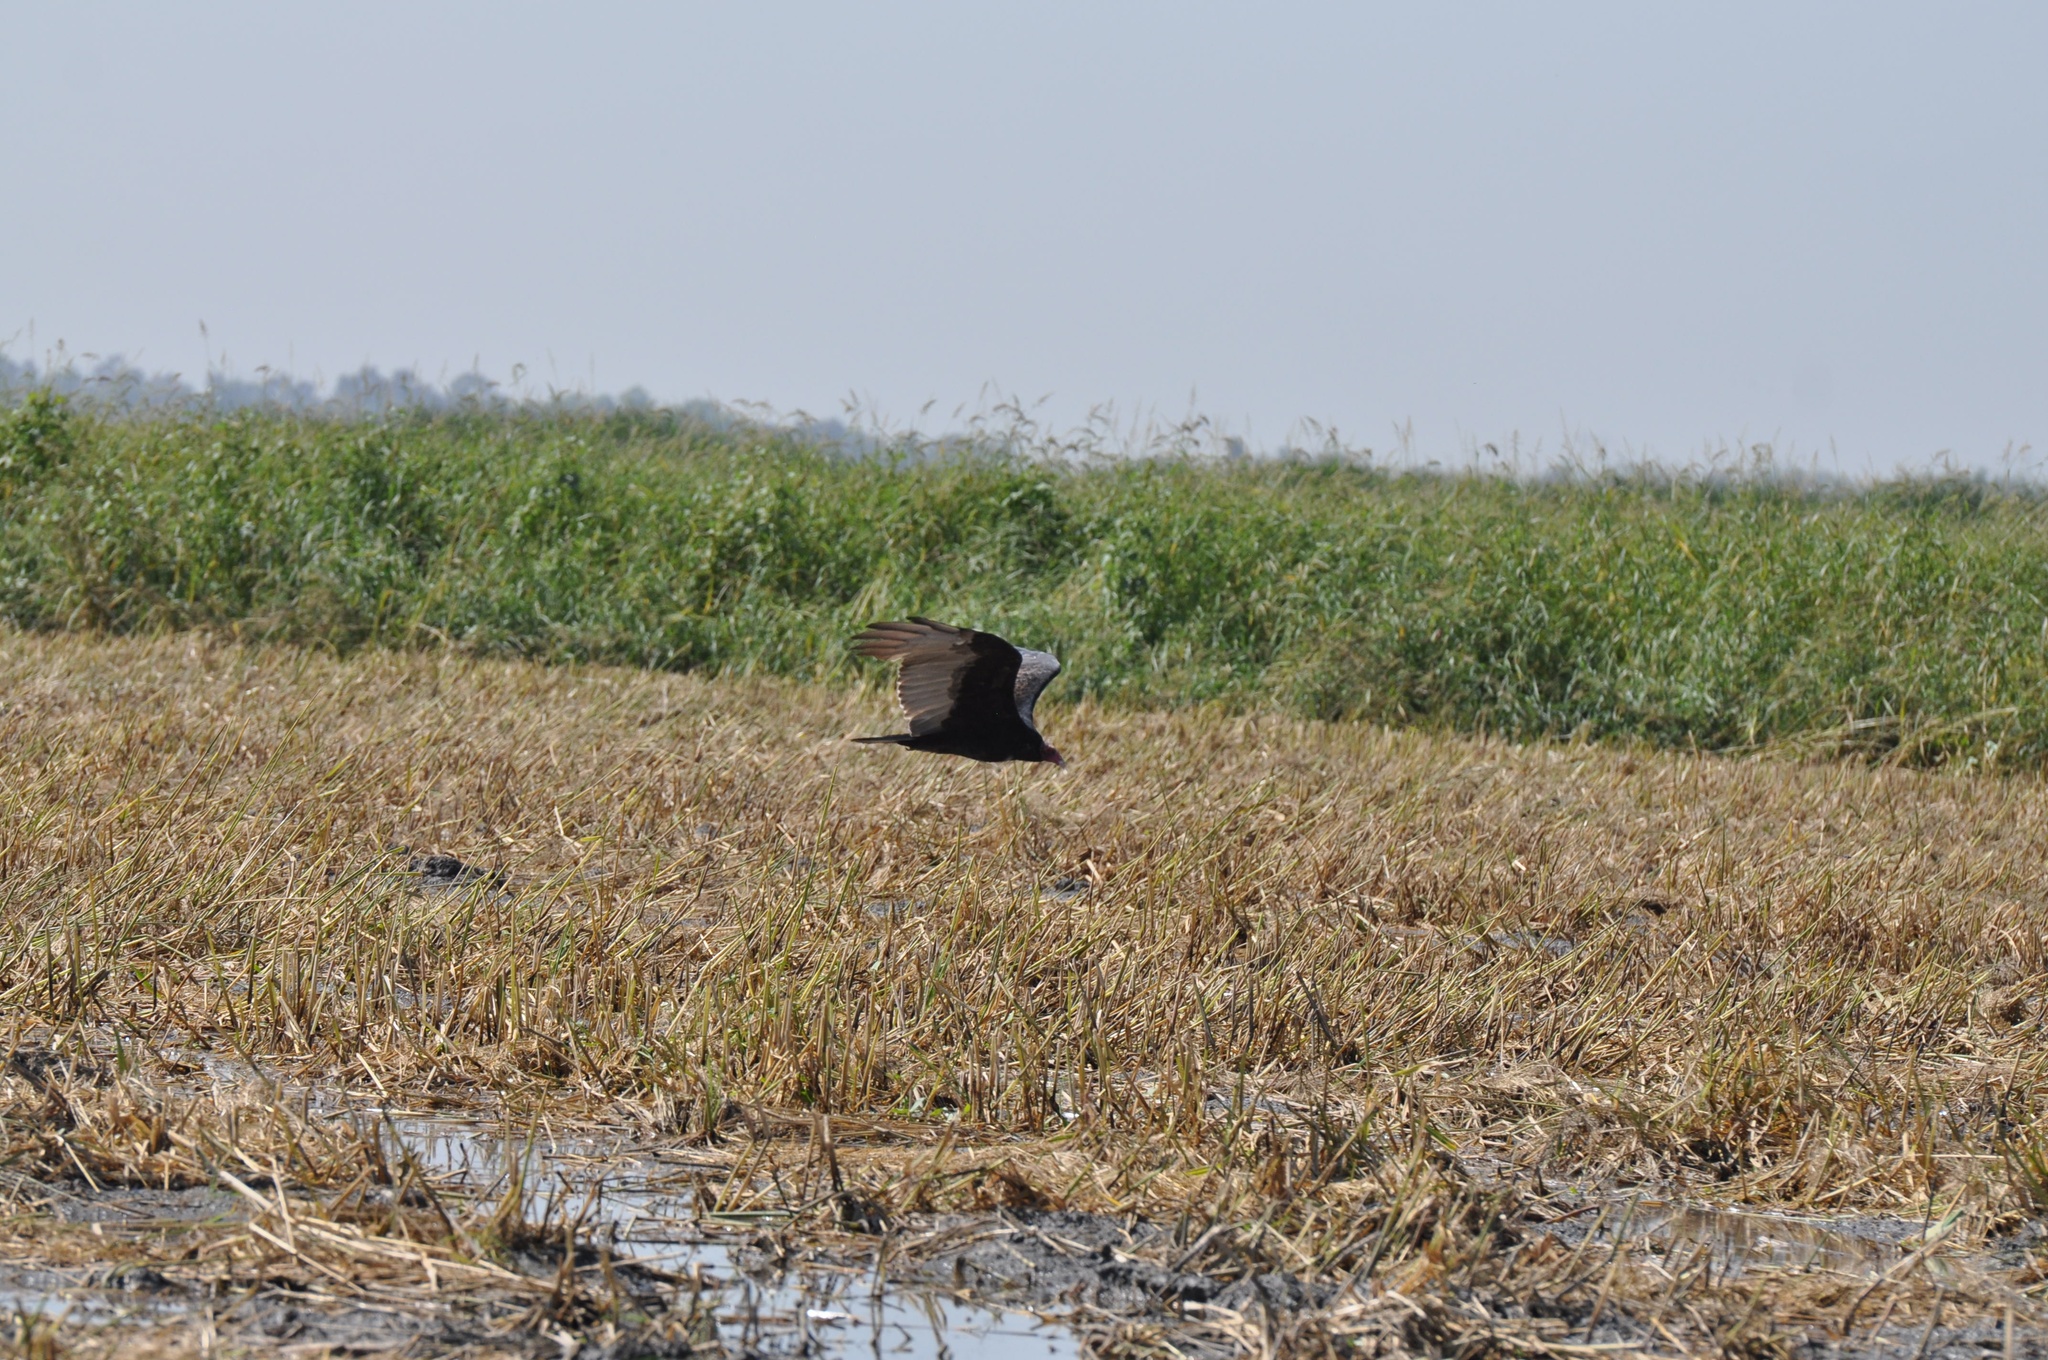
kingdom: Animalia
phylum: Chordata
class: Aves
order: Accipitriformes
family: Cathartidae
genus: Cathartes
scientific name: Cathartes aura
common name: Turkey vulture
